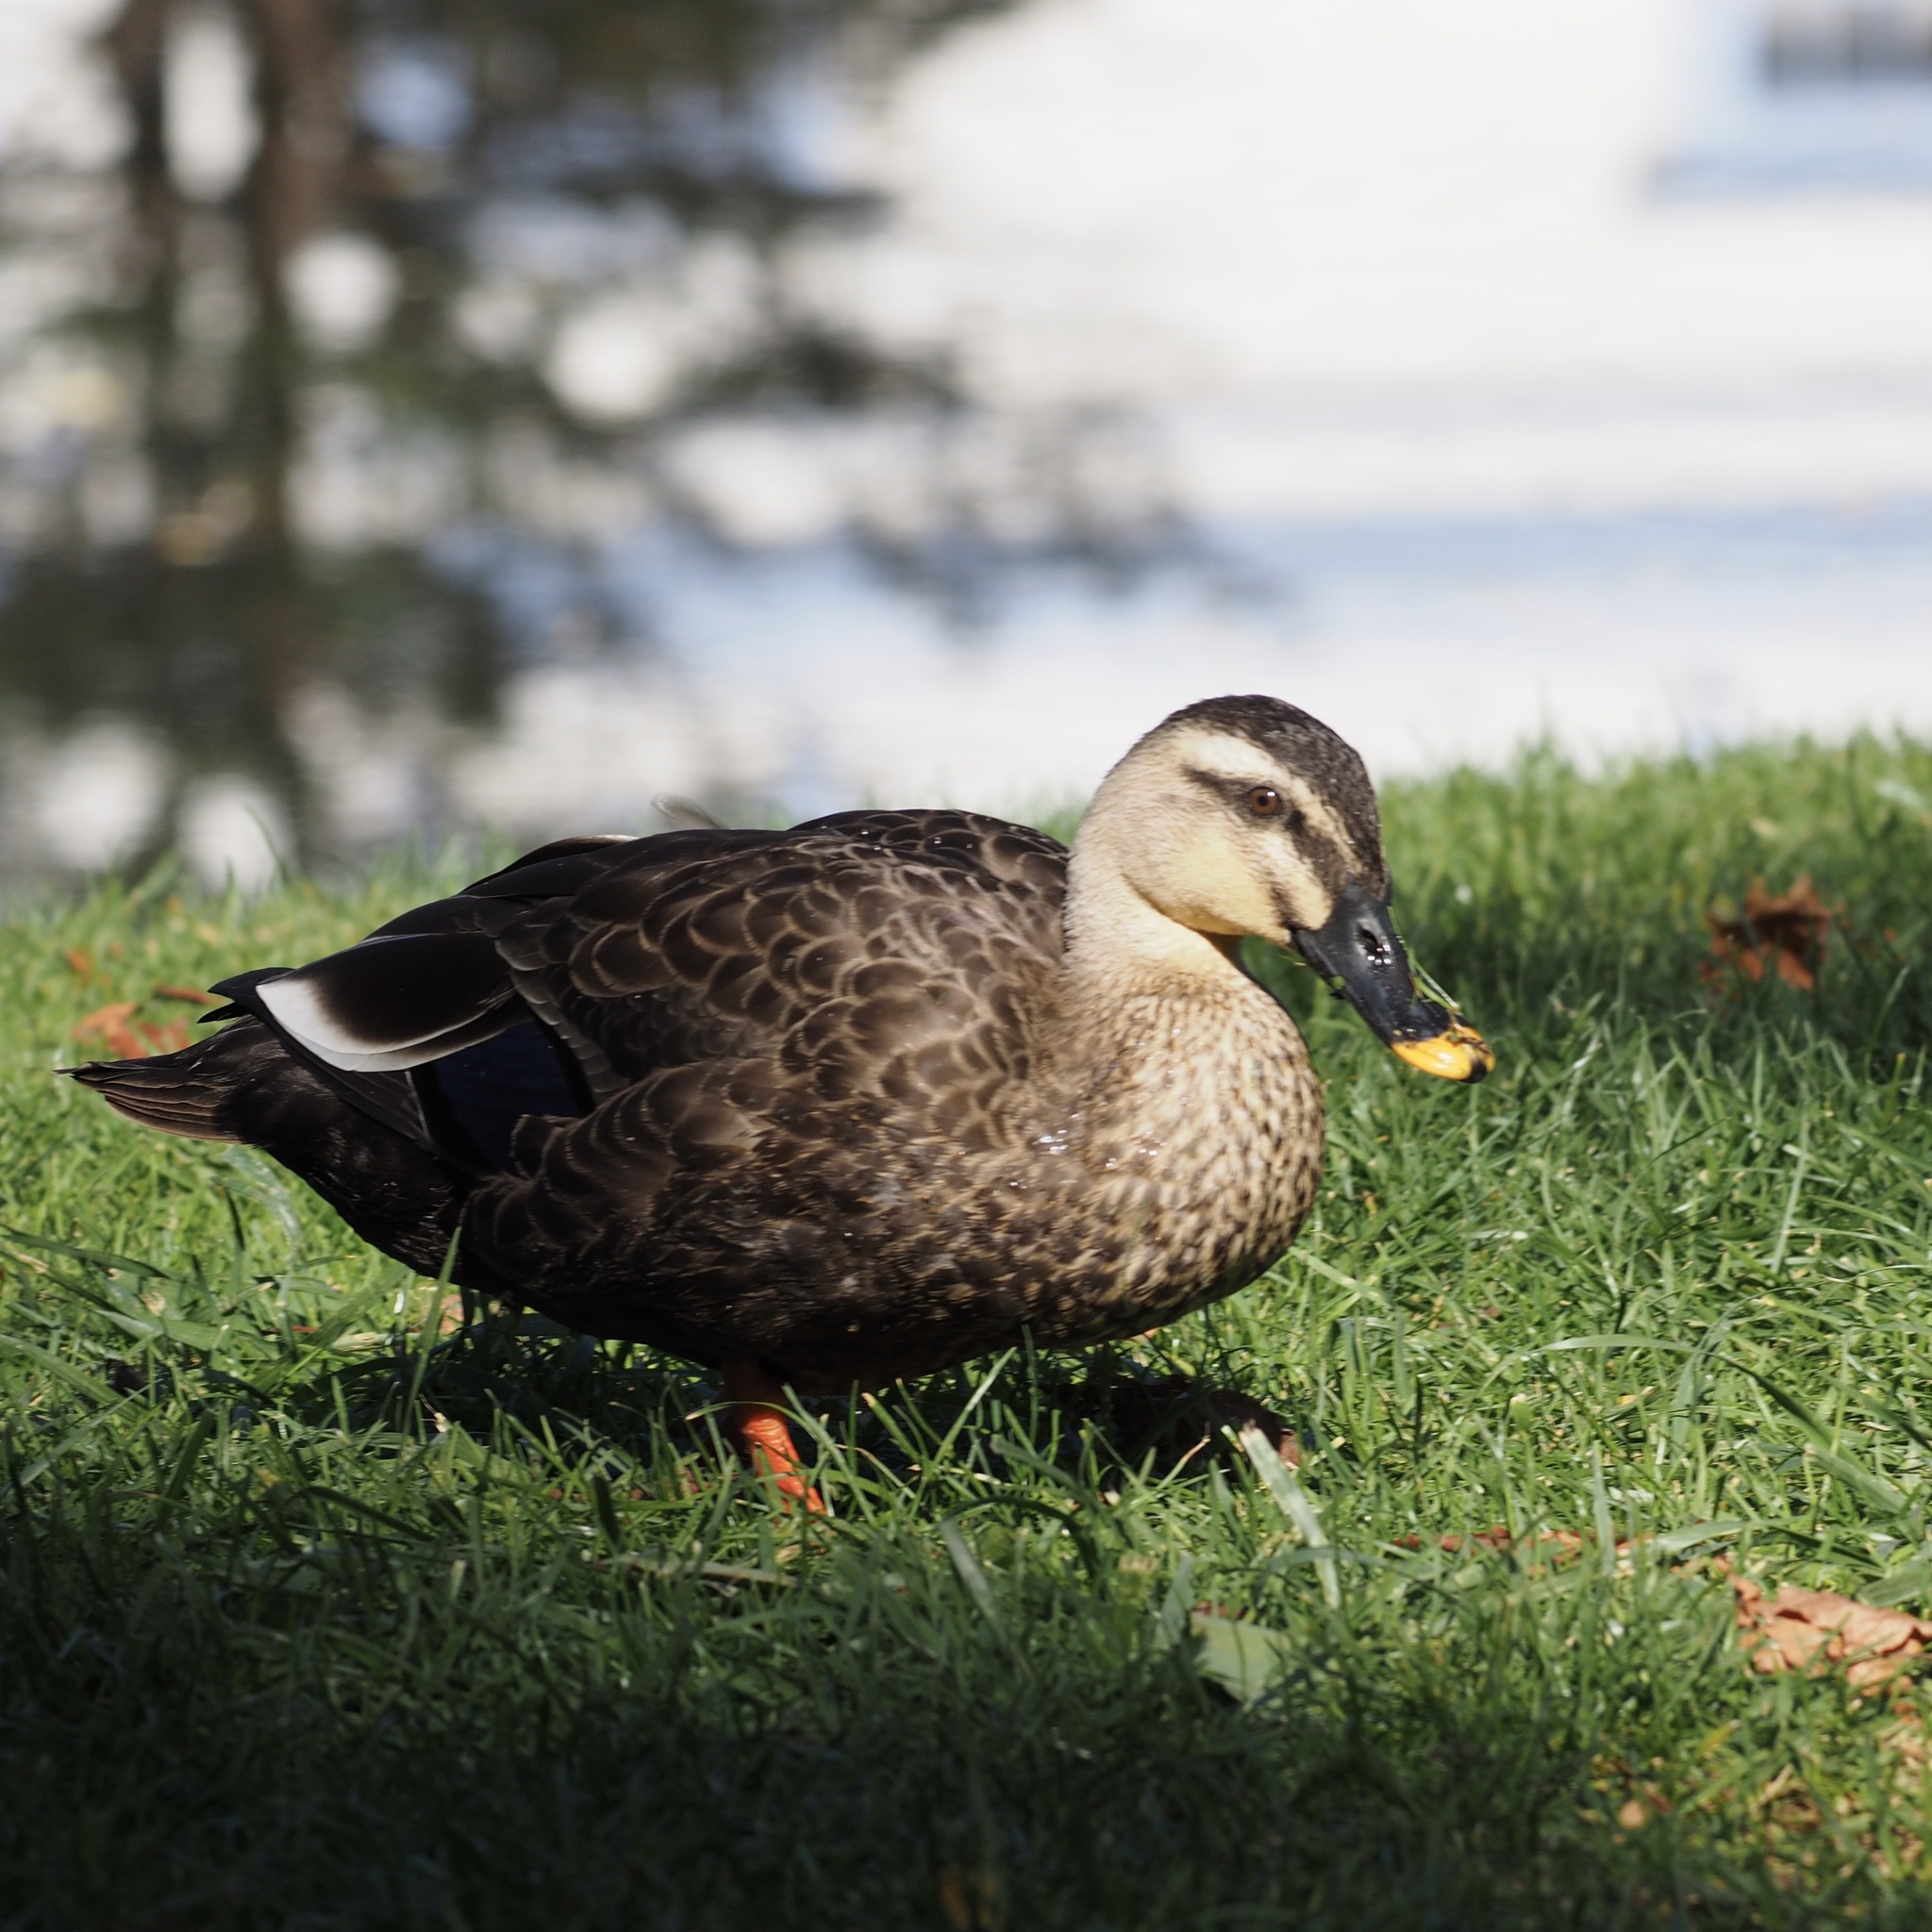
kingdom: Animalia
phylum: Chordata
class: Aves
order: Anseriformes
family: Anatidae
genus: Anas
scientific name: Anas zonorhyncha
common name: Eastern spot-billed duck
